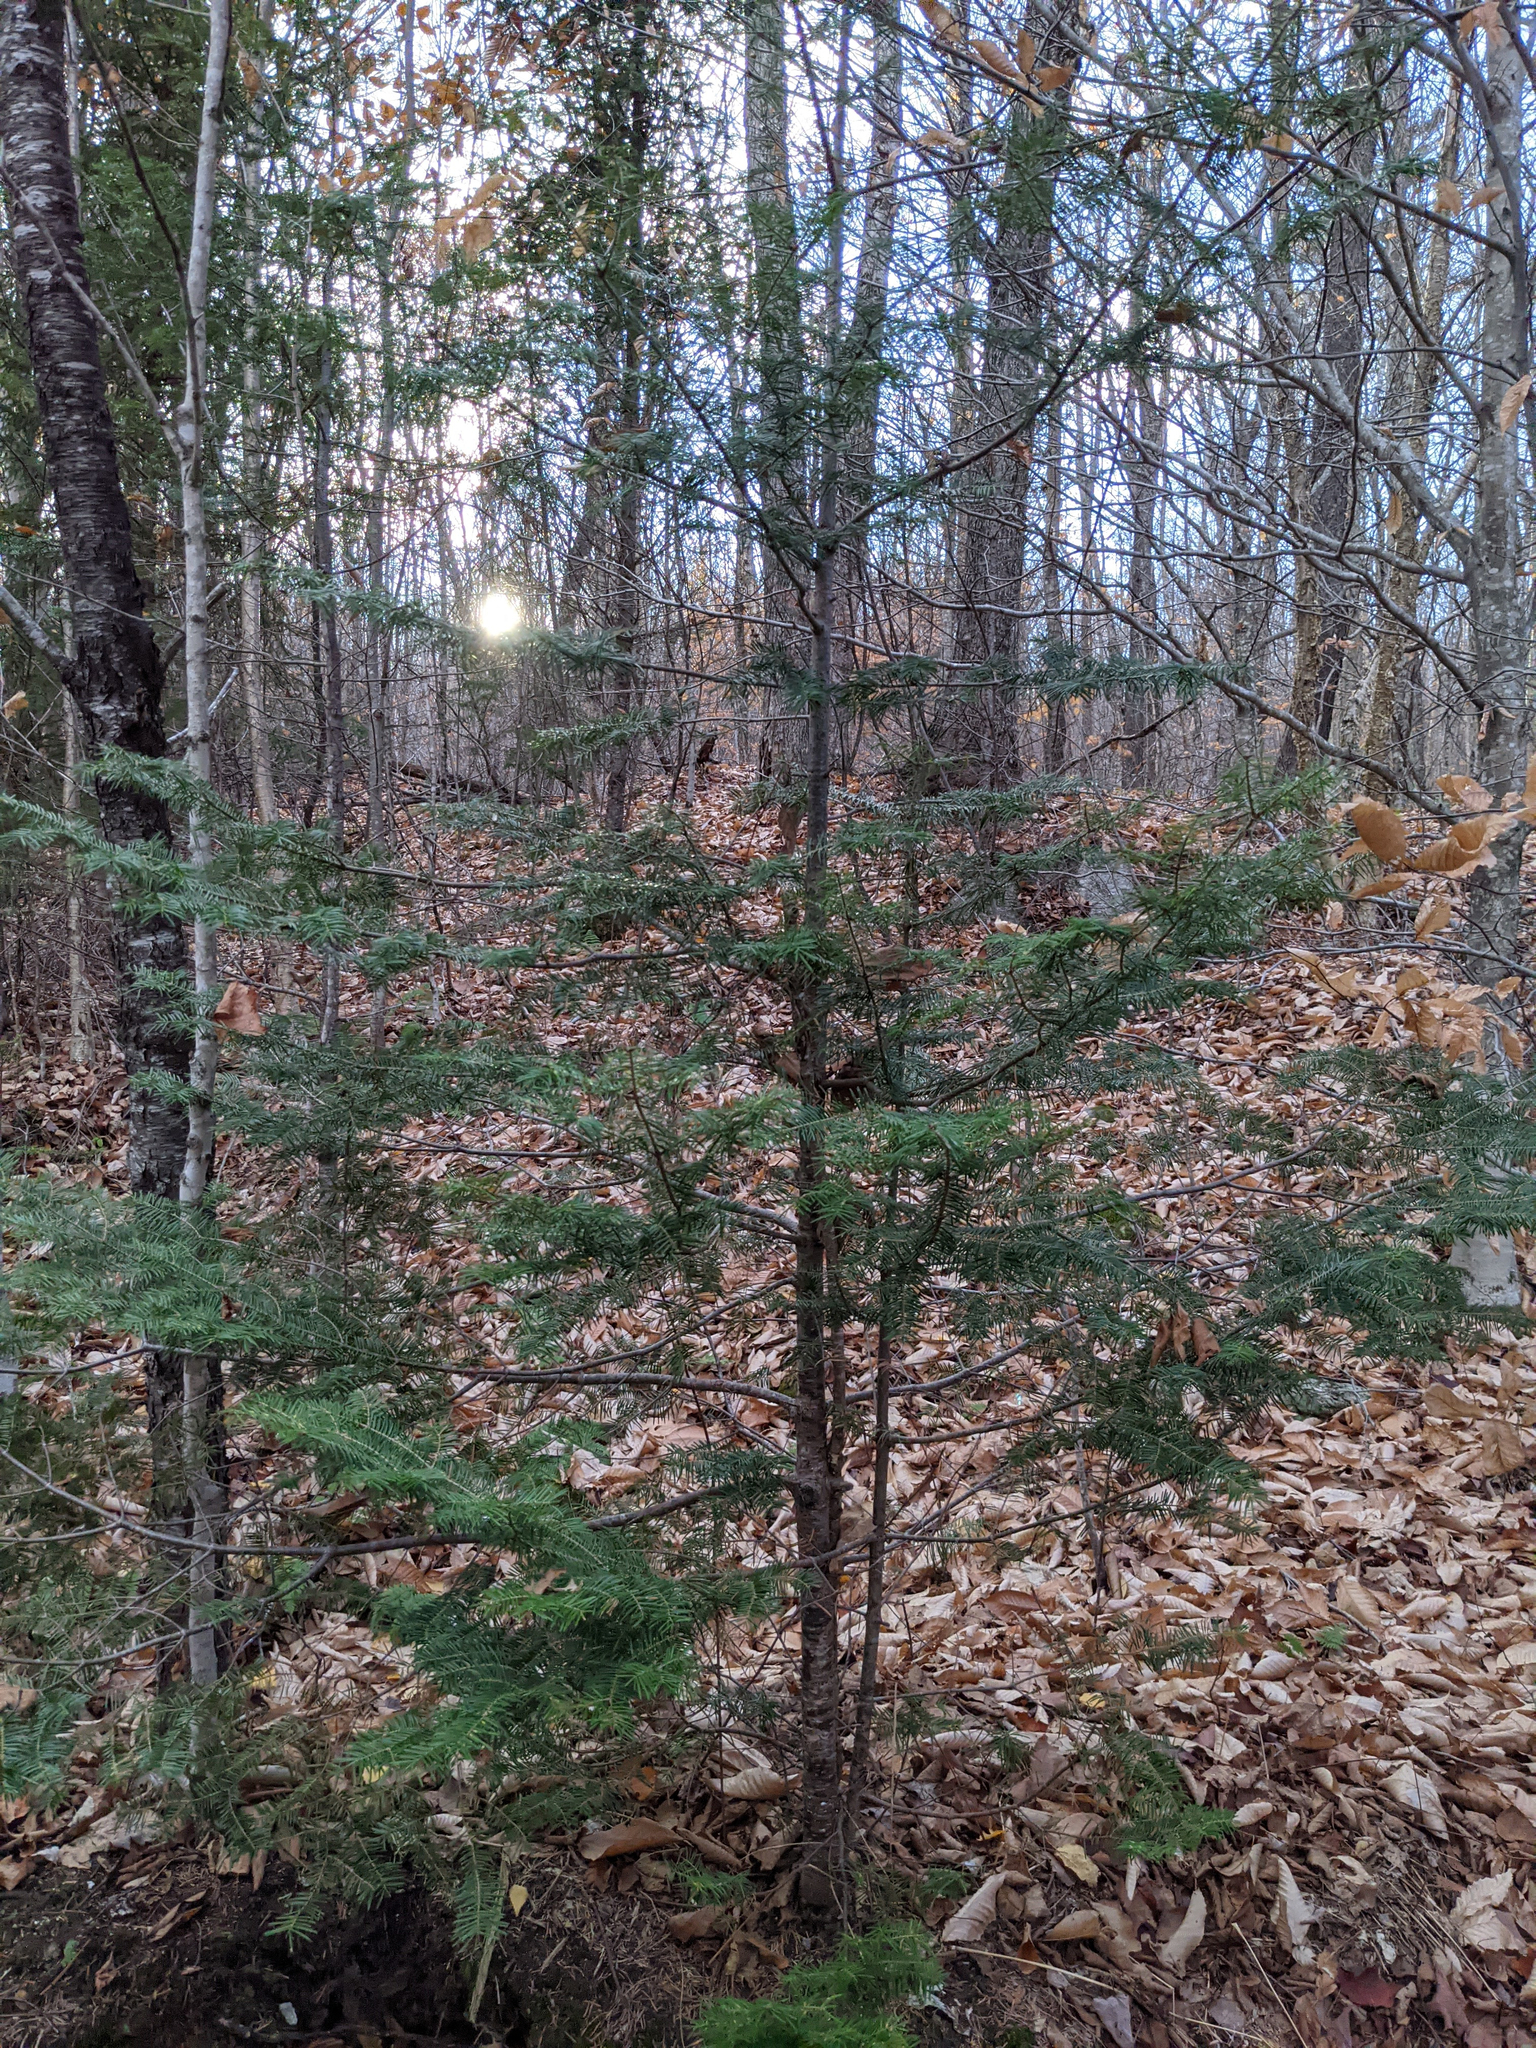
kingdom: Plantae
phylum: Tracheophyta
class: Pinopsida
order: Pinales
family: Pinaceae
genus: Abies
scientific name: Abies balsamea
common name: Balsam fir
